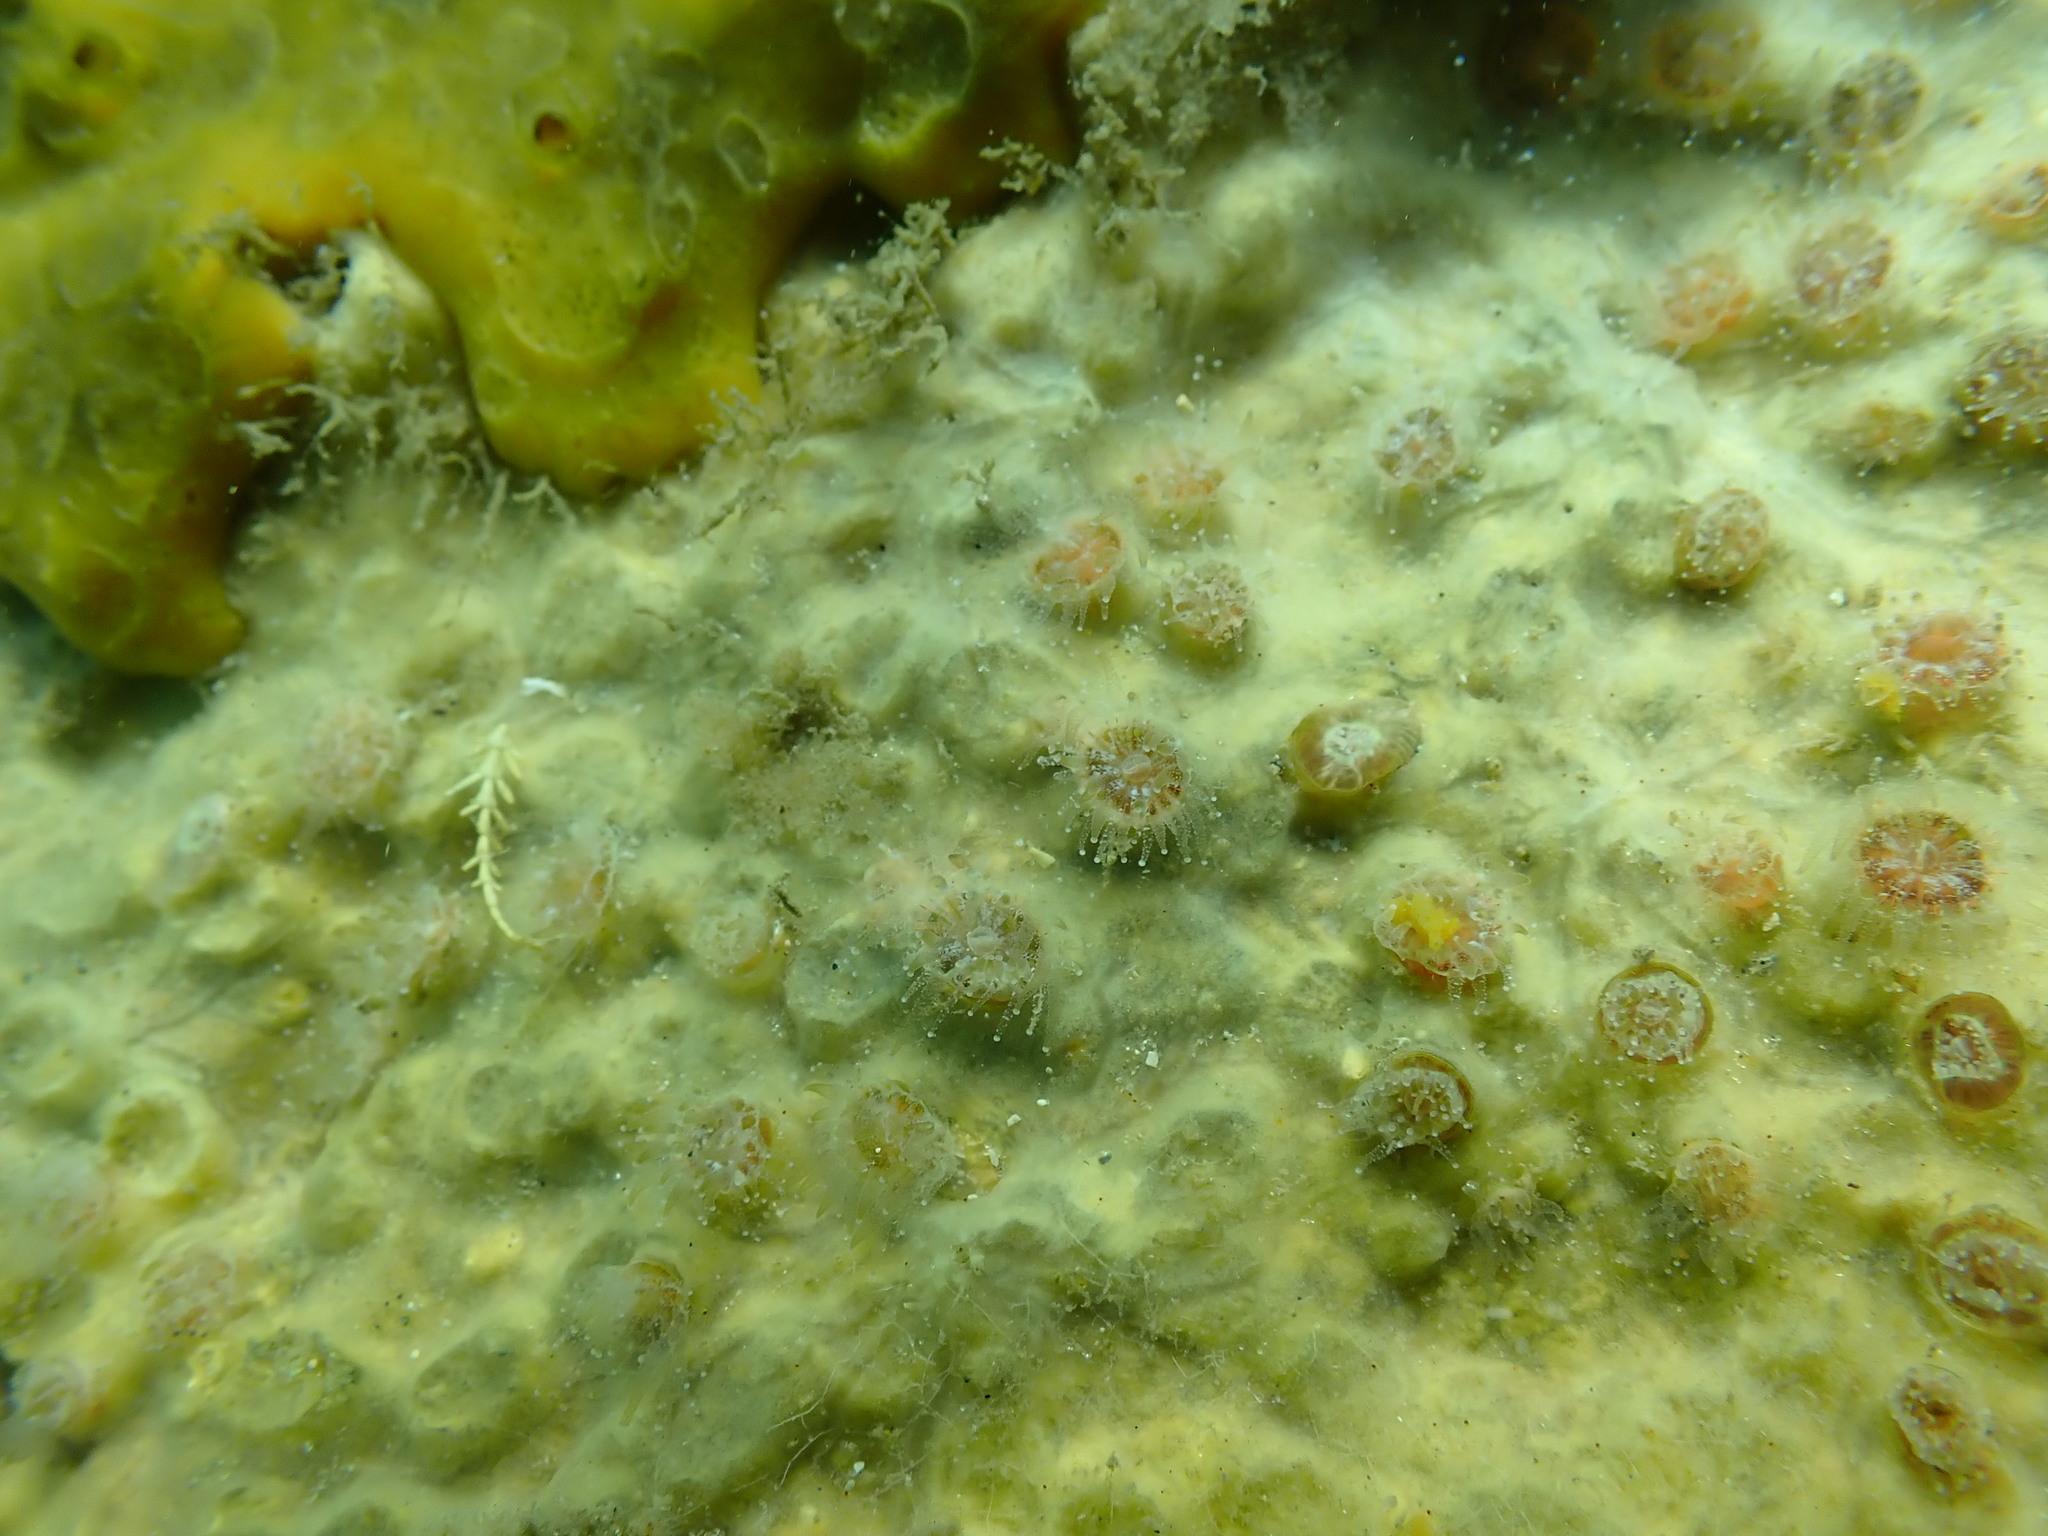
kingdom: Animalia
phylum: Cnidaria
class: Anthozoa
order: Scleractinia
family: Rhizangiidae
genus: Culicia
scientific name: Culicia rubeola
